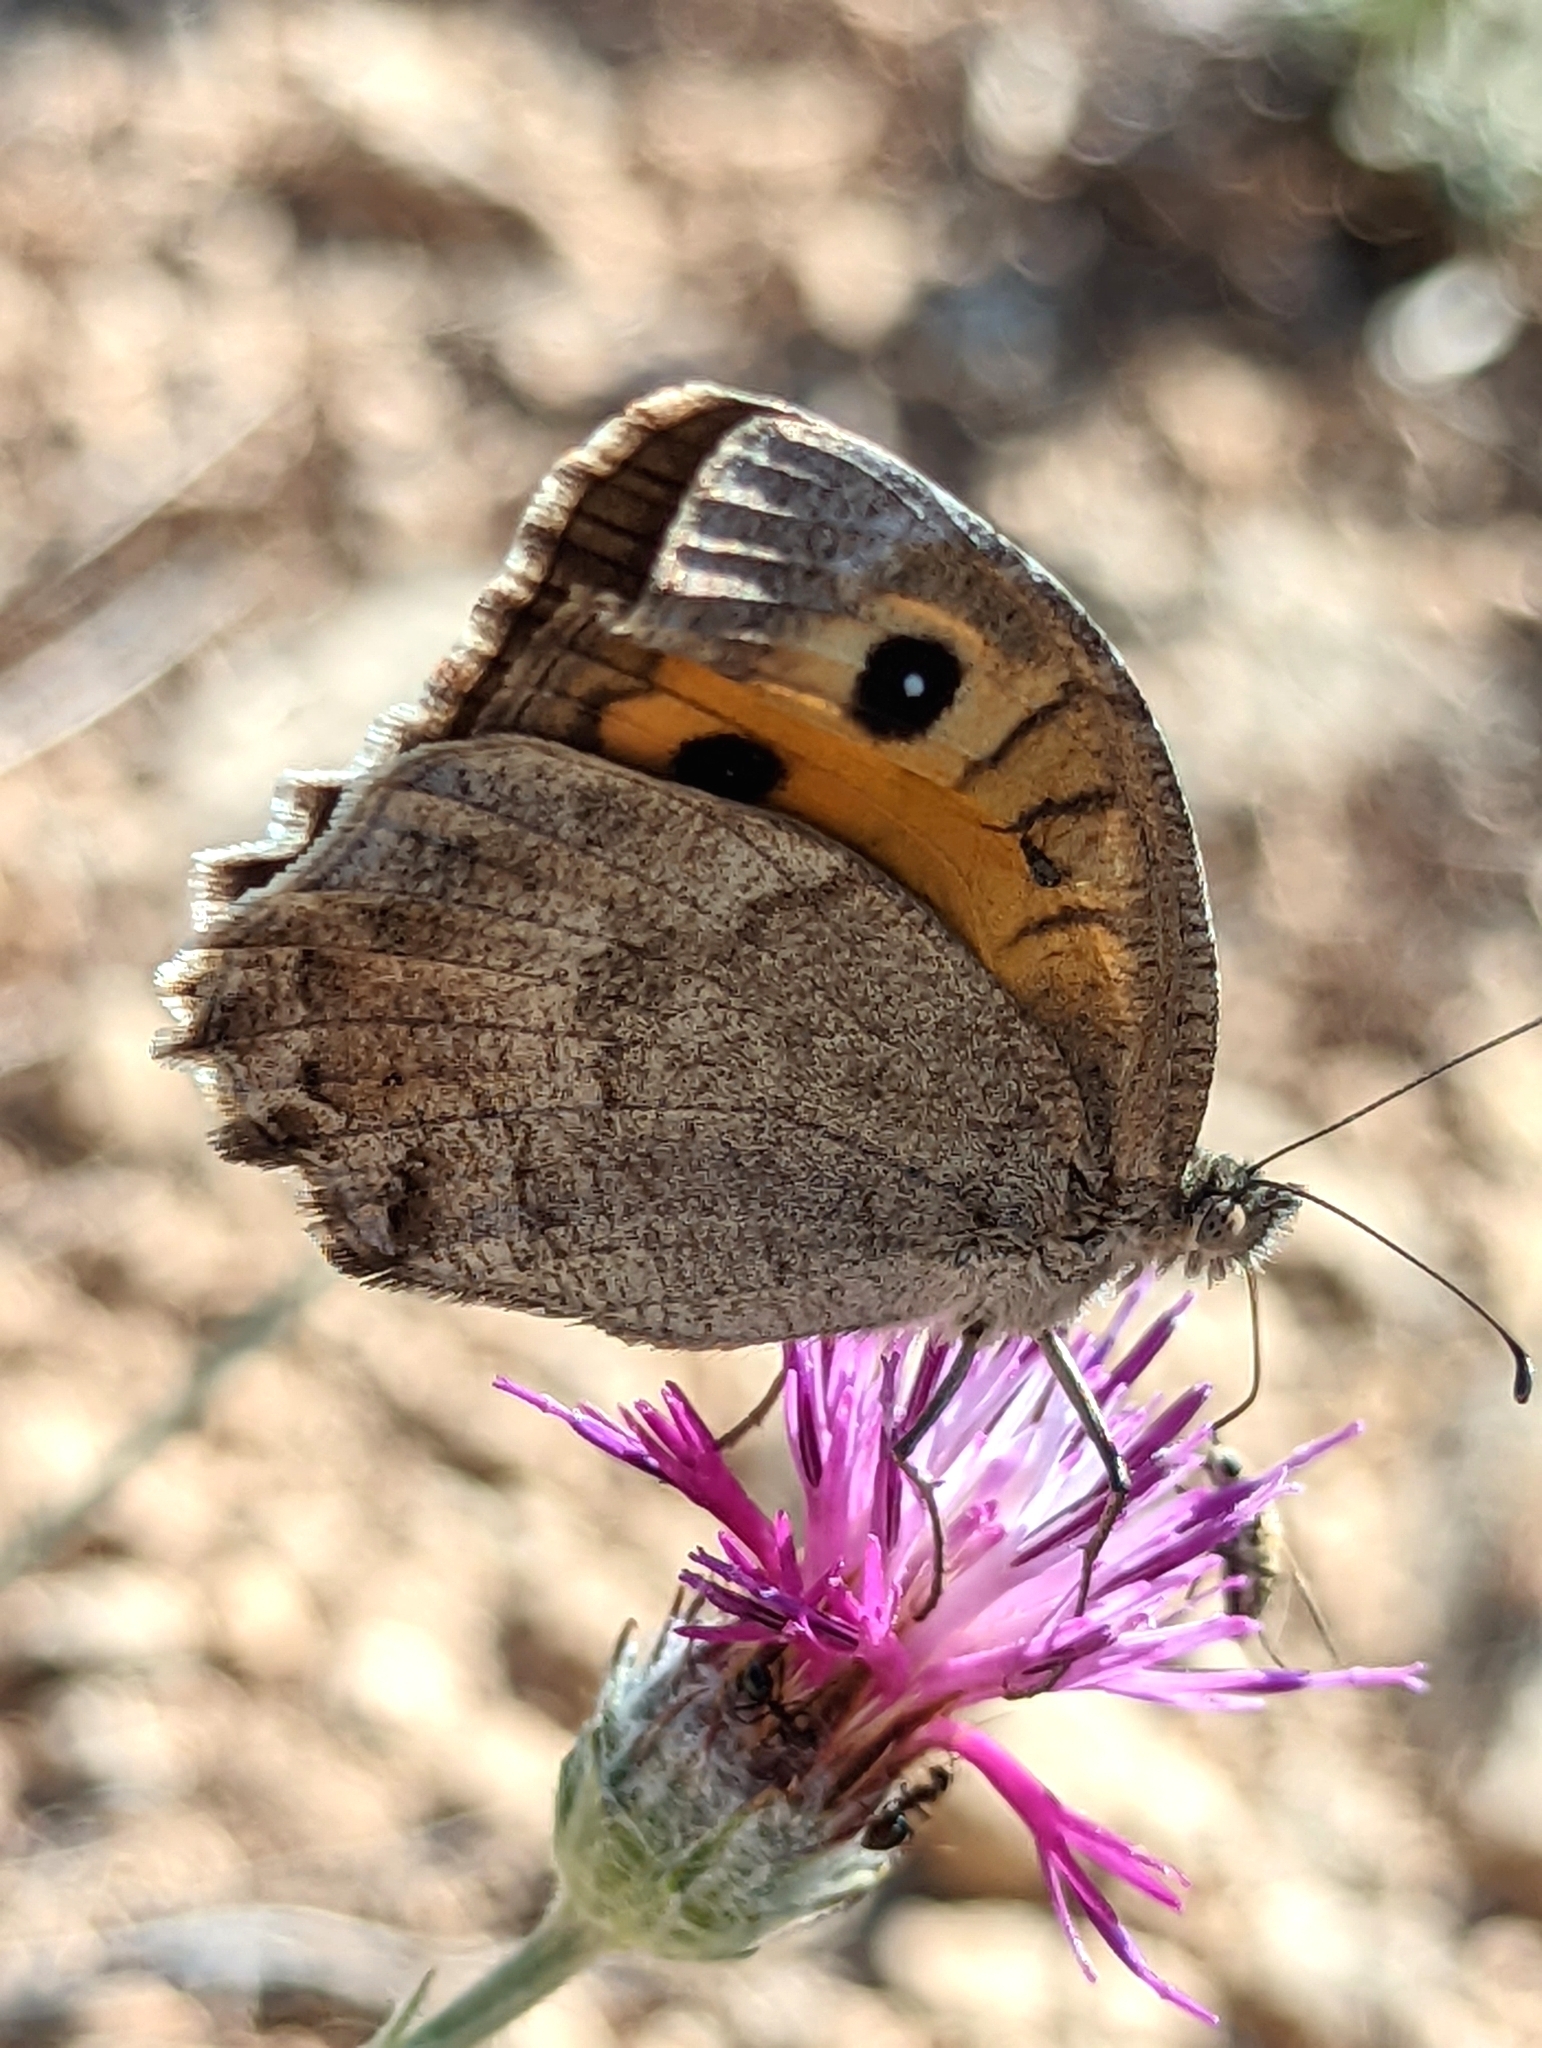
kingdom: Animalia
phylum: Arthropoda
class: Insecta
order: Lepidoptera
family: Nymphalidae
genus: Pseudochazara
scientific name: Pseudochazara mamurra
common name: Anatolian tawny rockbrown
